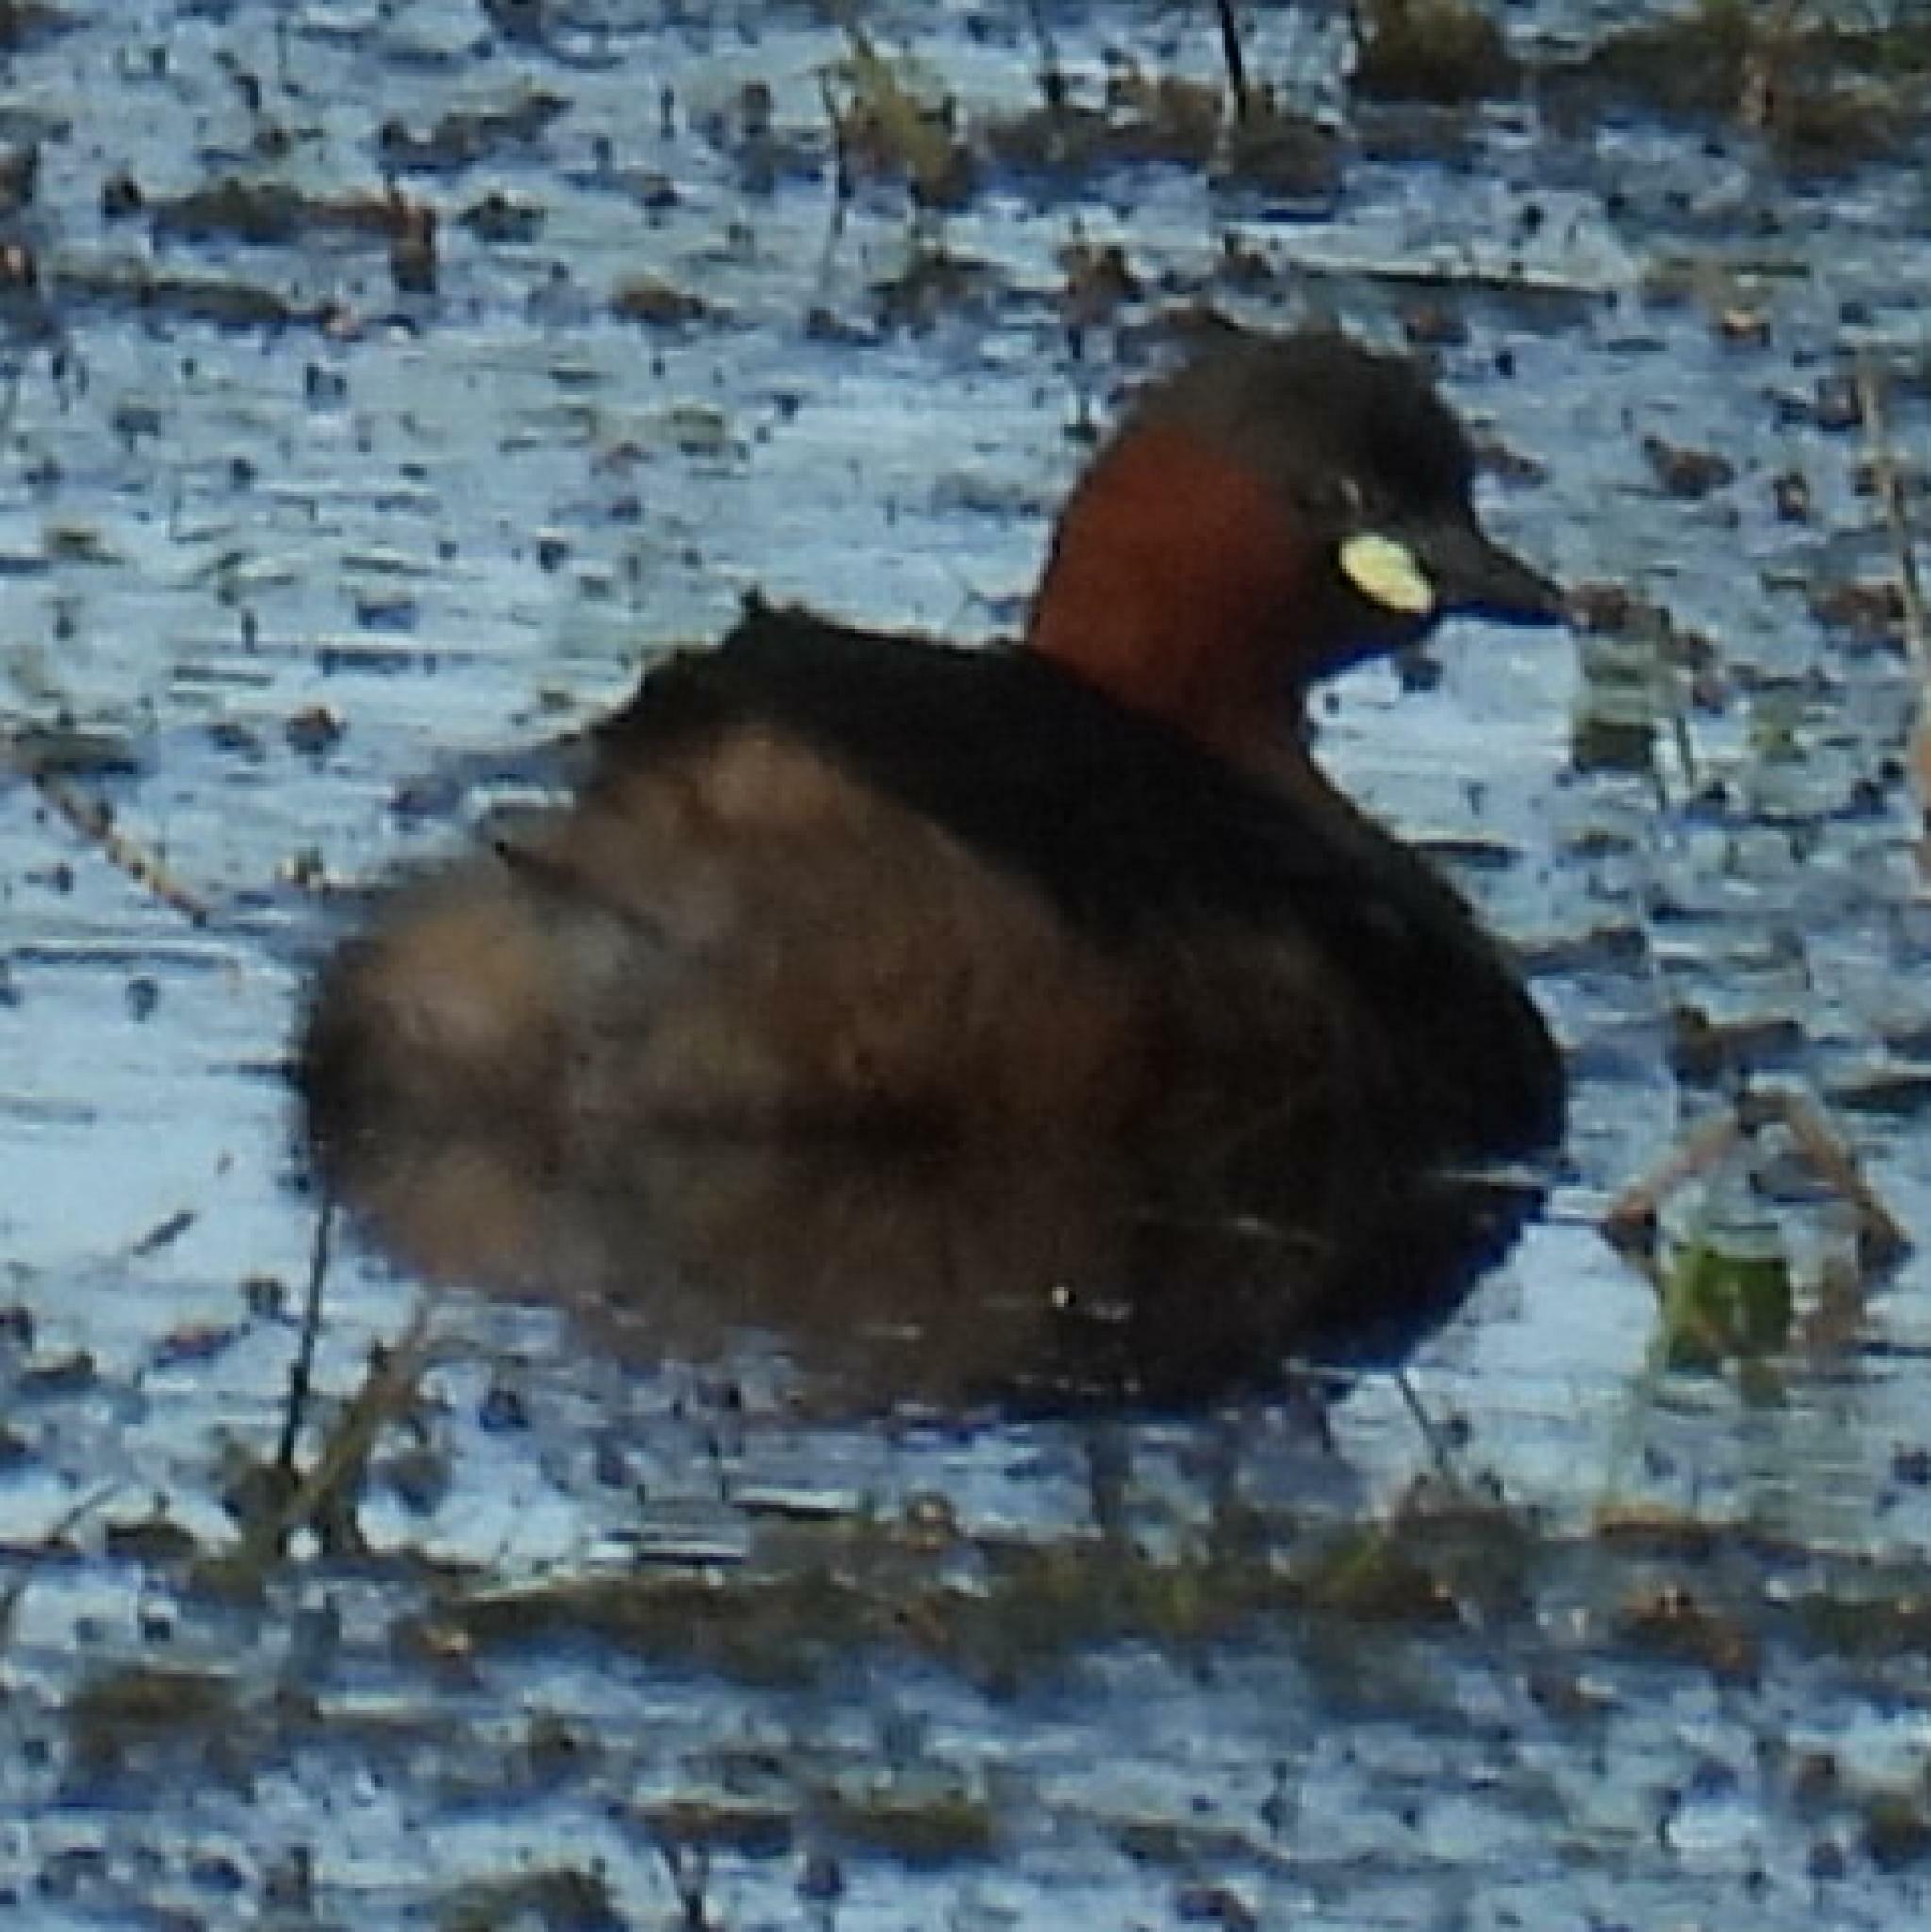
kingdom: Animalia
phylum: Chordata
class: Aves
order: Podicipediformes
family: Podicipedidae
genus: Tachybaptus
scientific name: Tachybaptus ruficollis
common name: Little grebe
